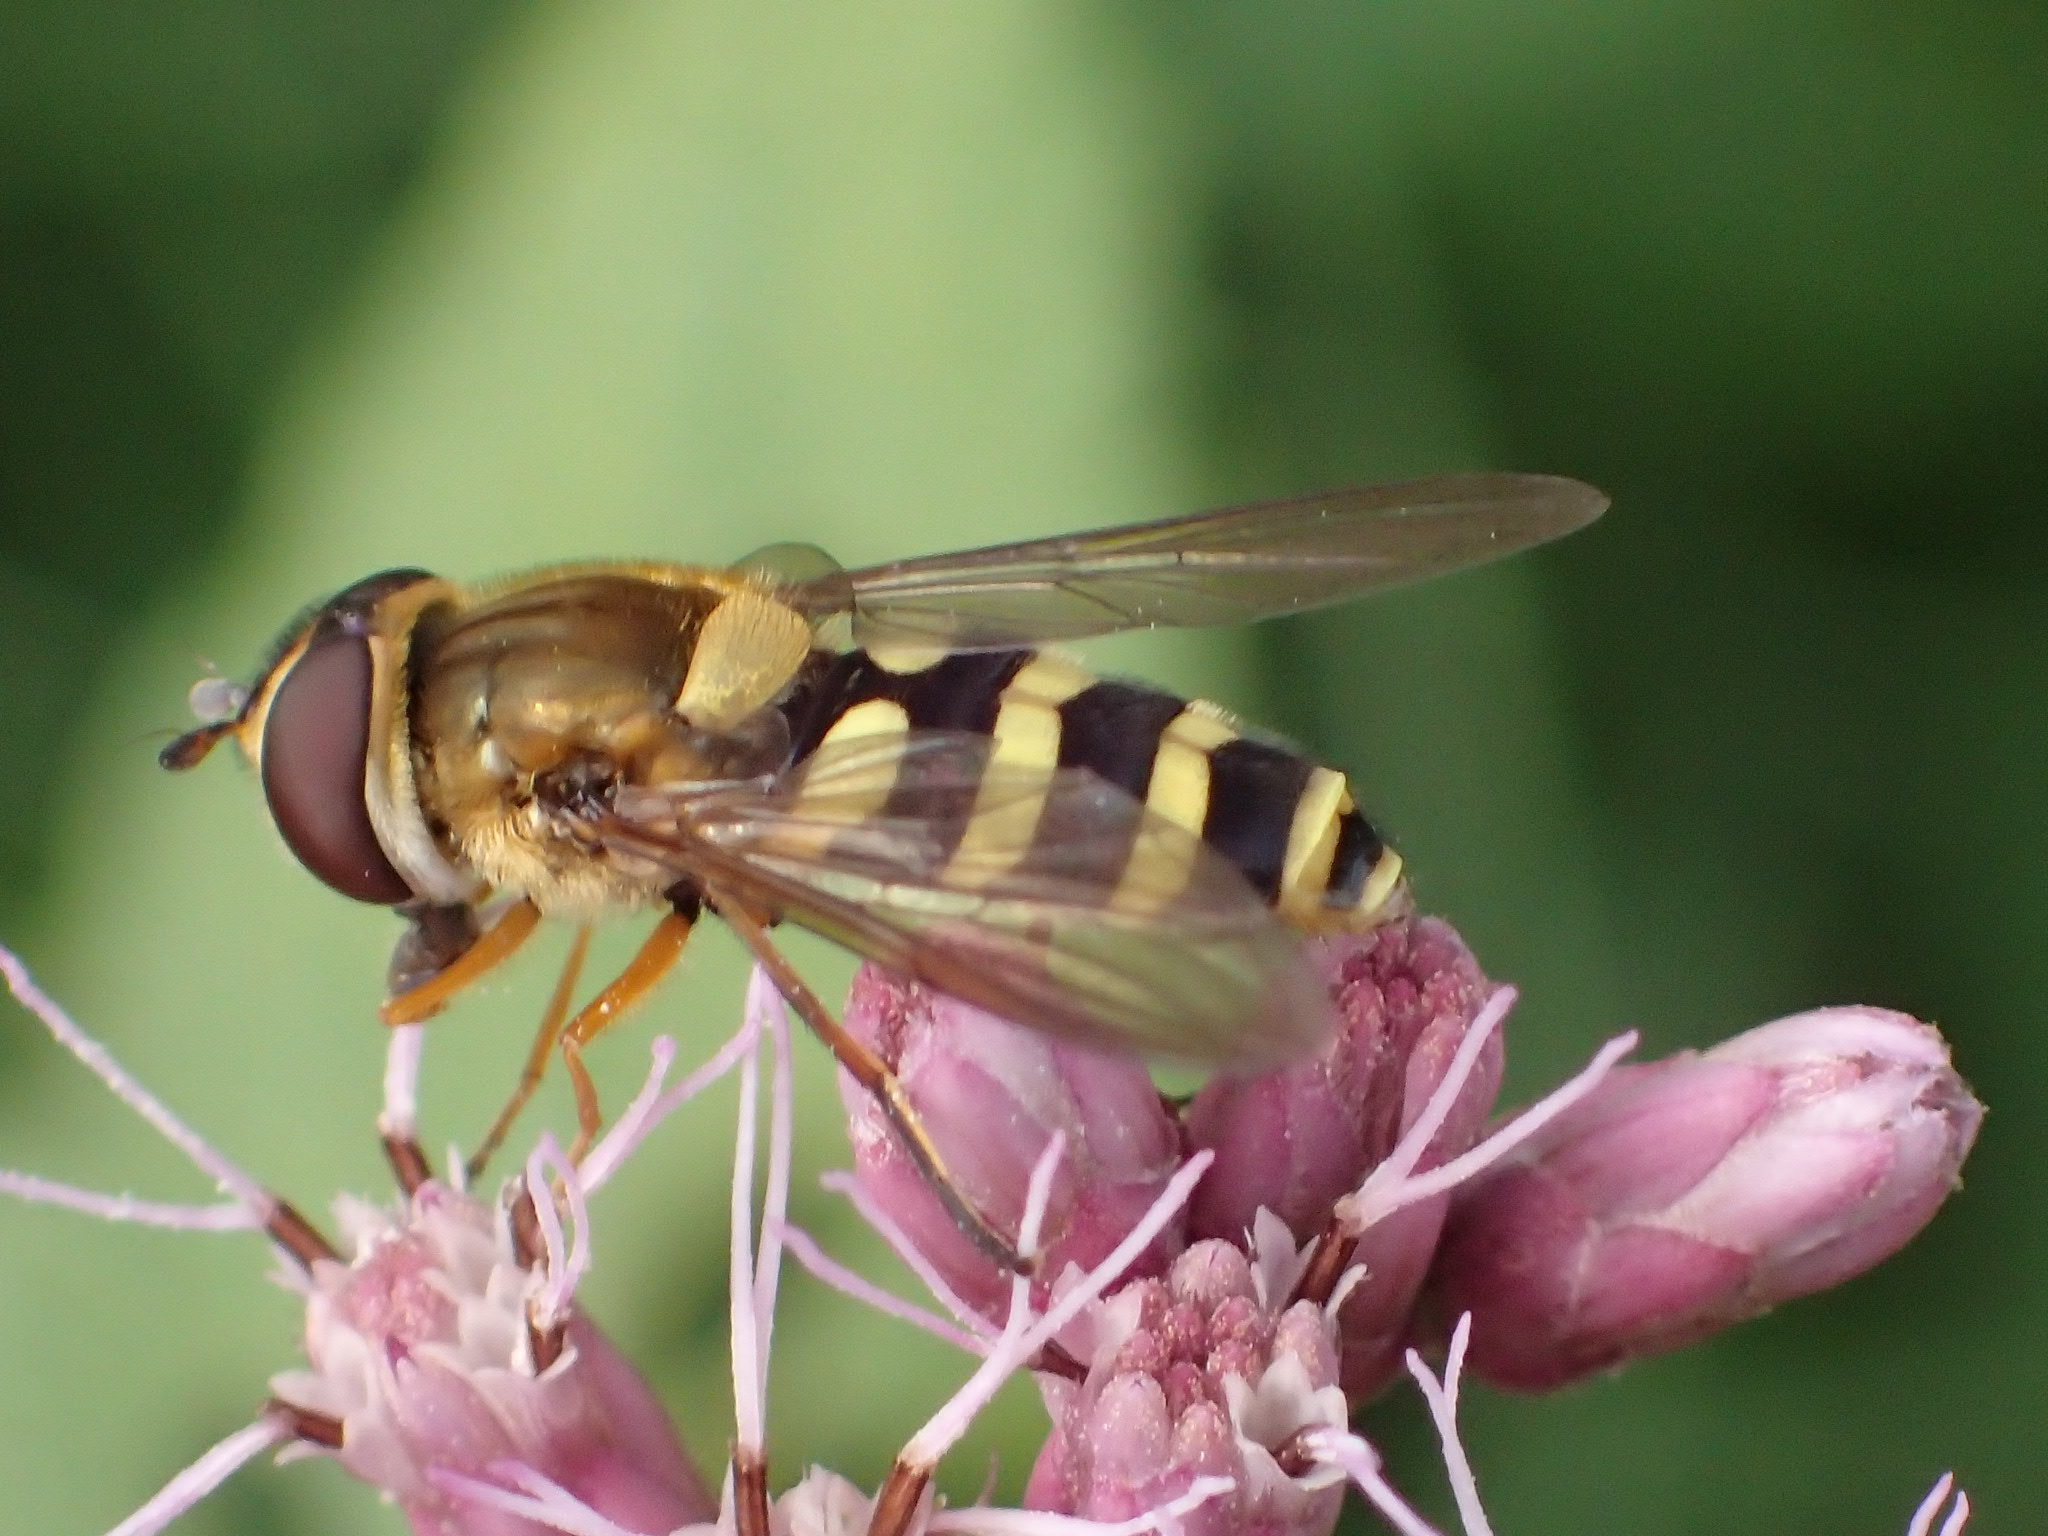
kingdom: Animalia
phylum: Arthropoda
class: Insecta
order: Diptera
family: Syrphidae
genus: Syrphus
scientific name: Syrphus ribesii
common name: Common flower fly
